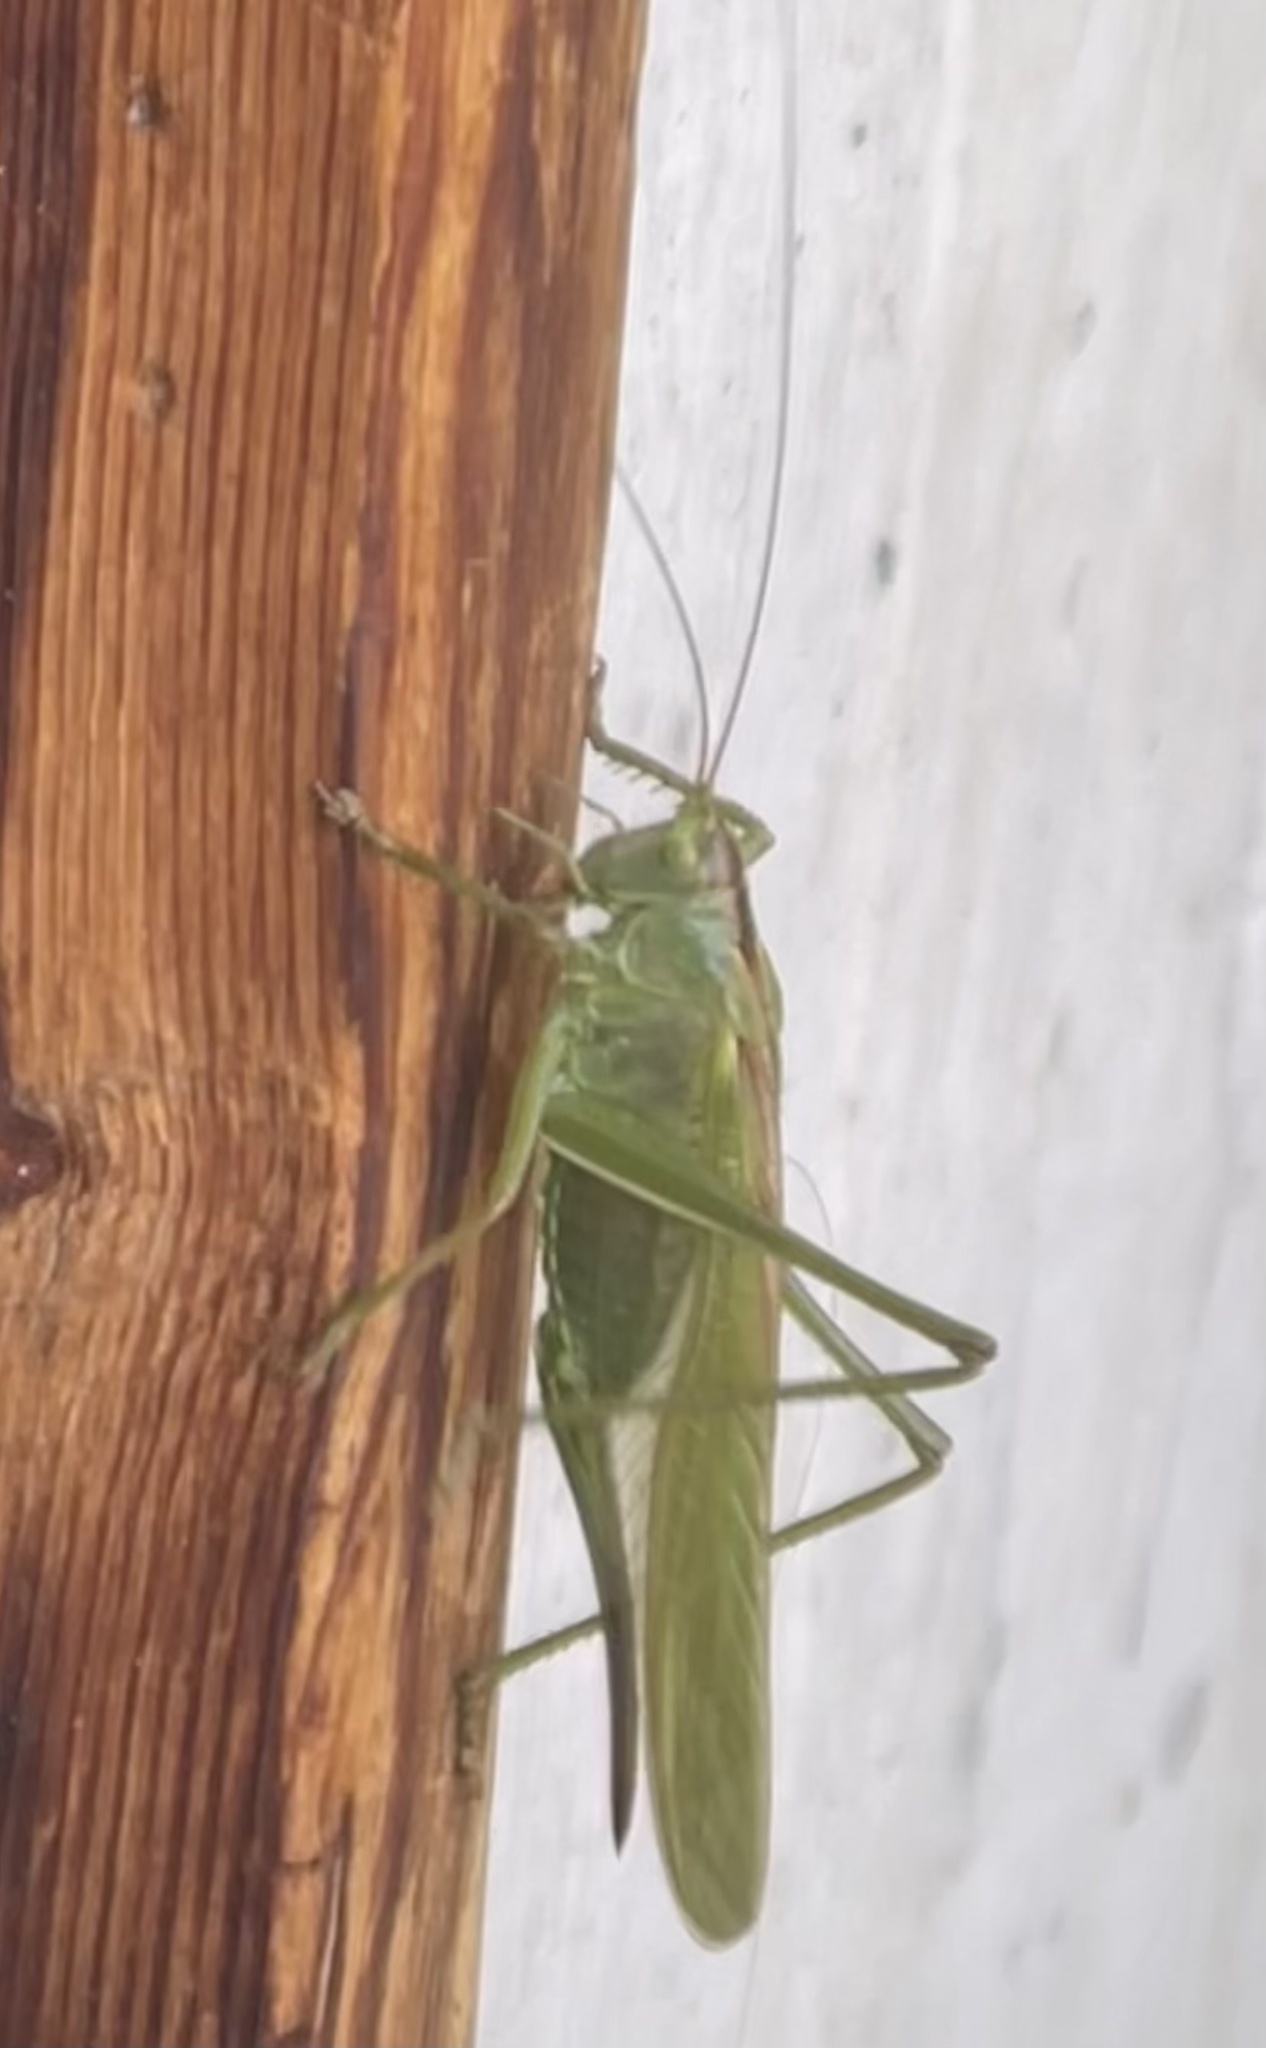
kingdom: Animalia
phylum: Arthropoda
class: Insecta
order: Orthoptera
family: Tettigoniidae
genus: Tettigonia
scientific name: Tettigonia viridissima
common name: Great green bush-cricket
